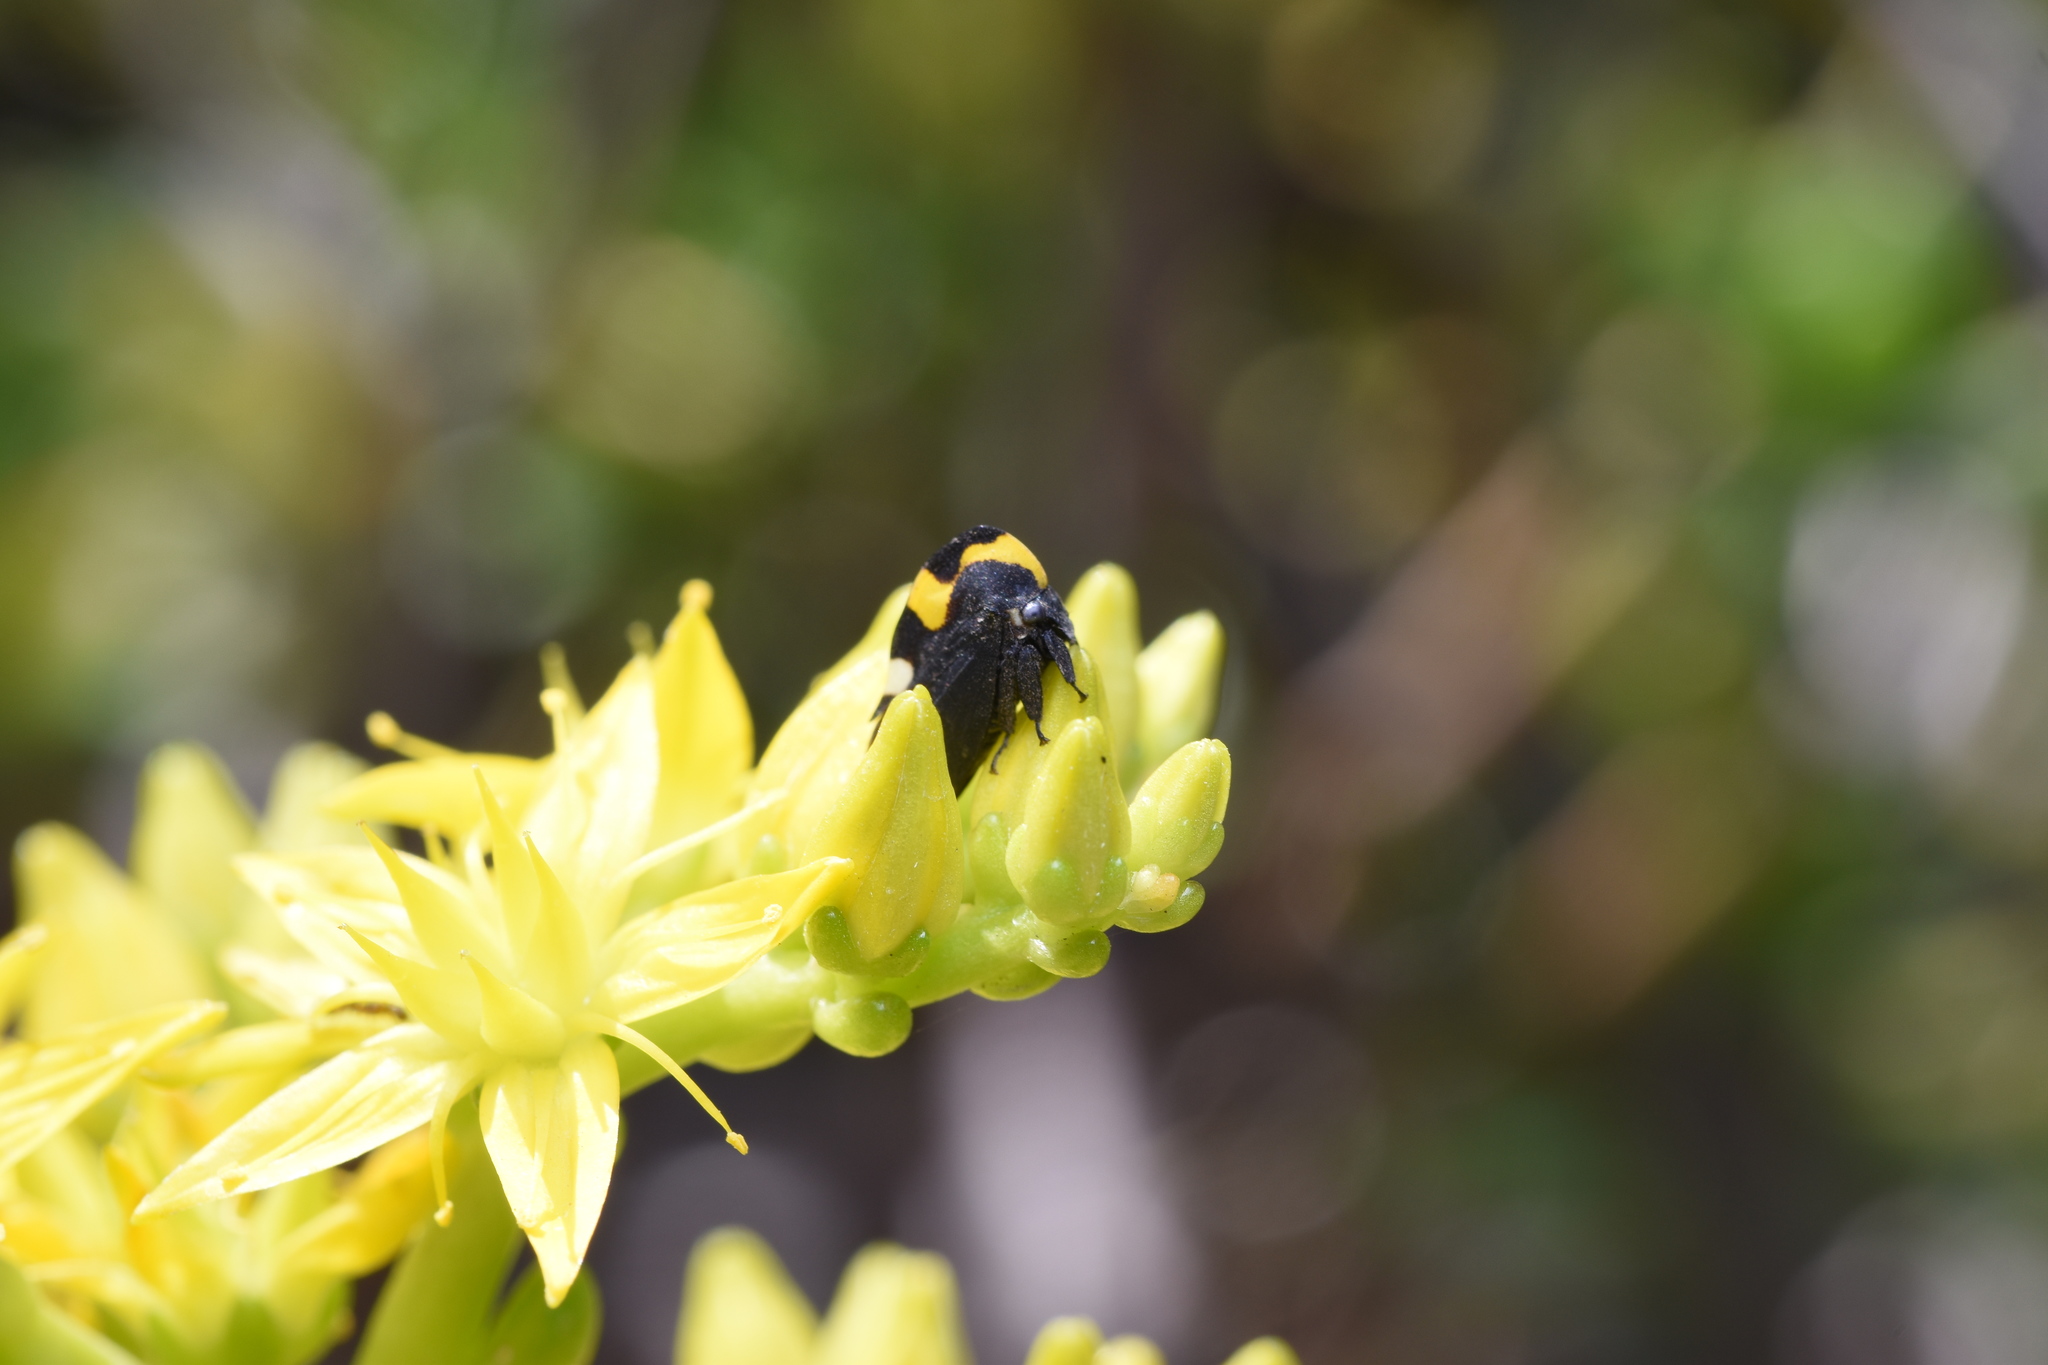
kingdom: Animalia
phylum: Arthropoda
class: Insecta
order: Hemiptera
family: Membracidae
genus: Membracis
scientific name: Membracis mexicana
